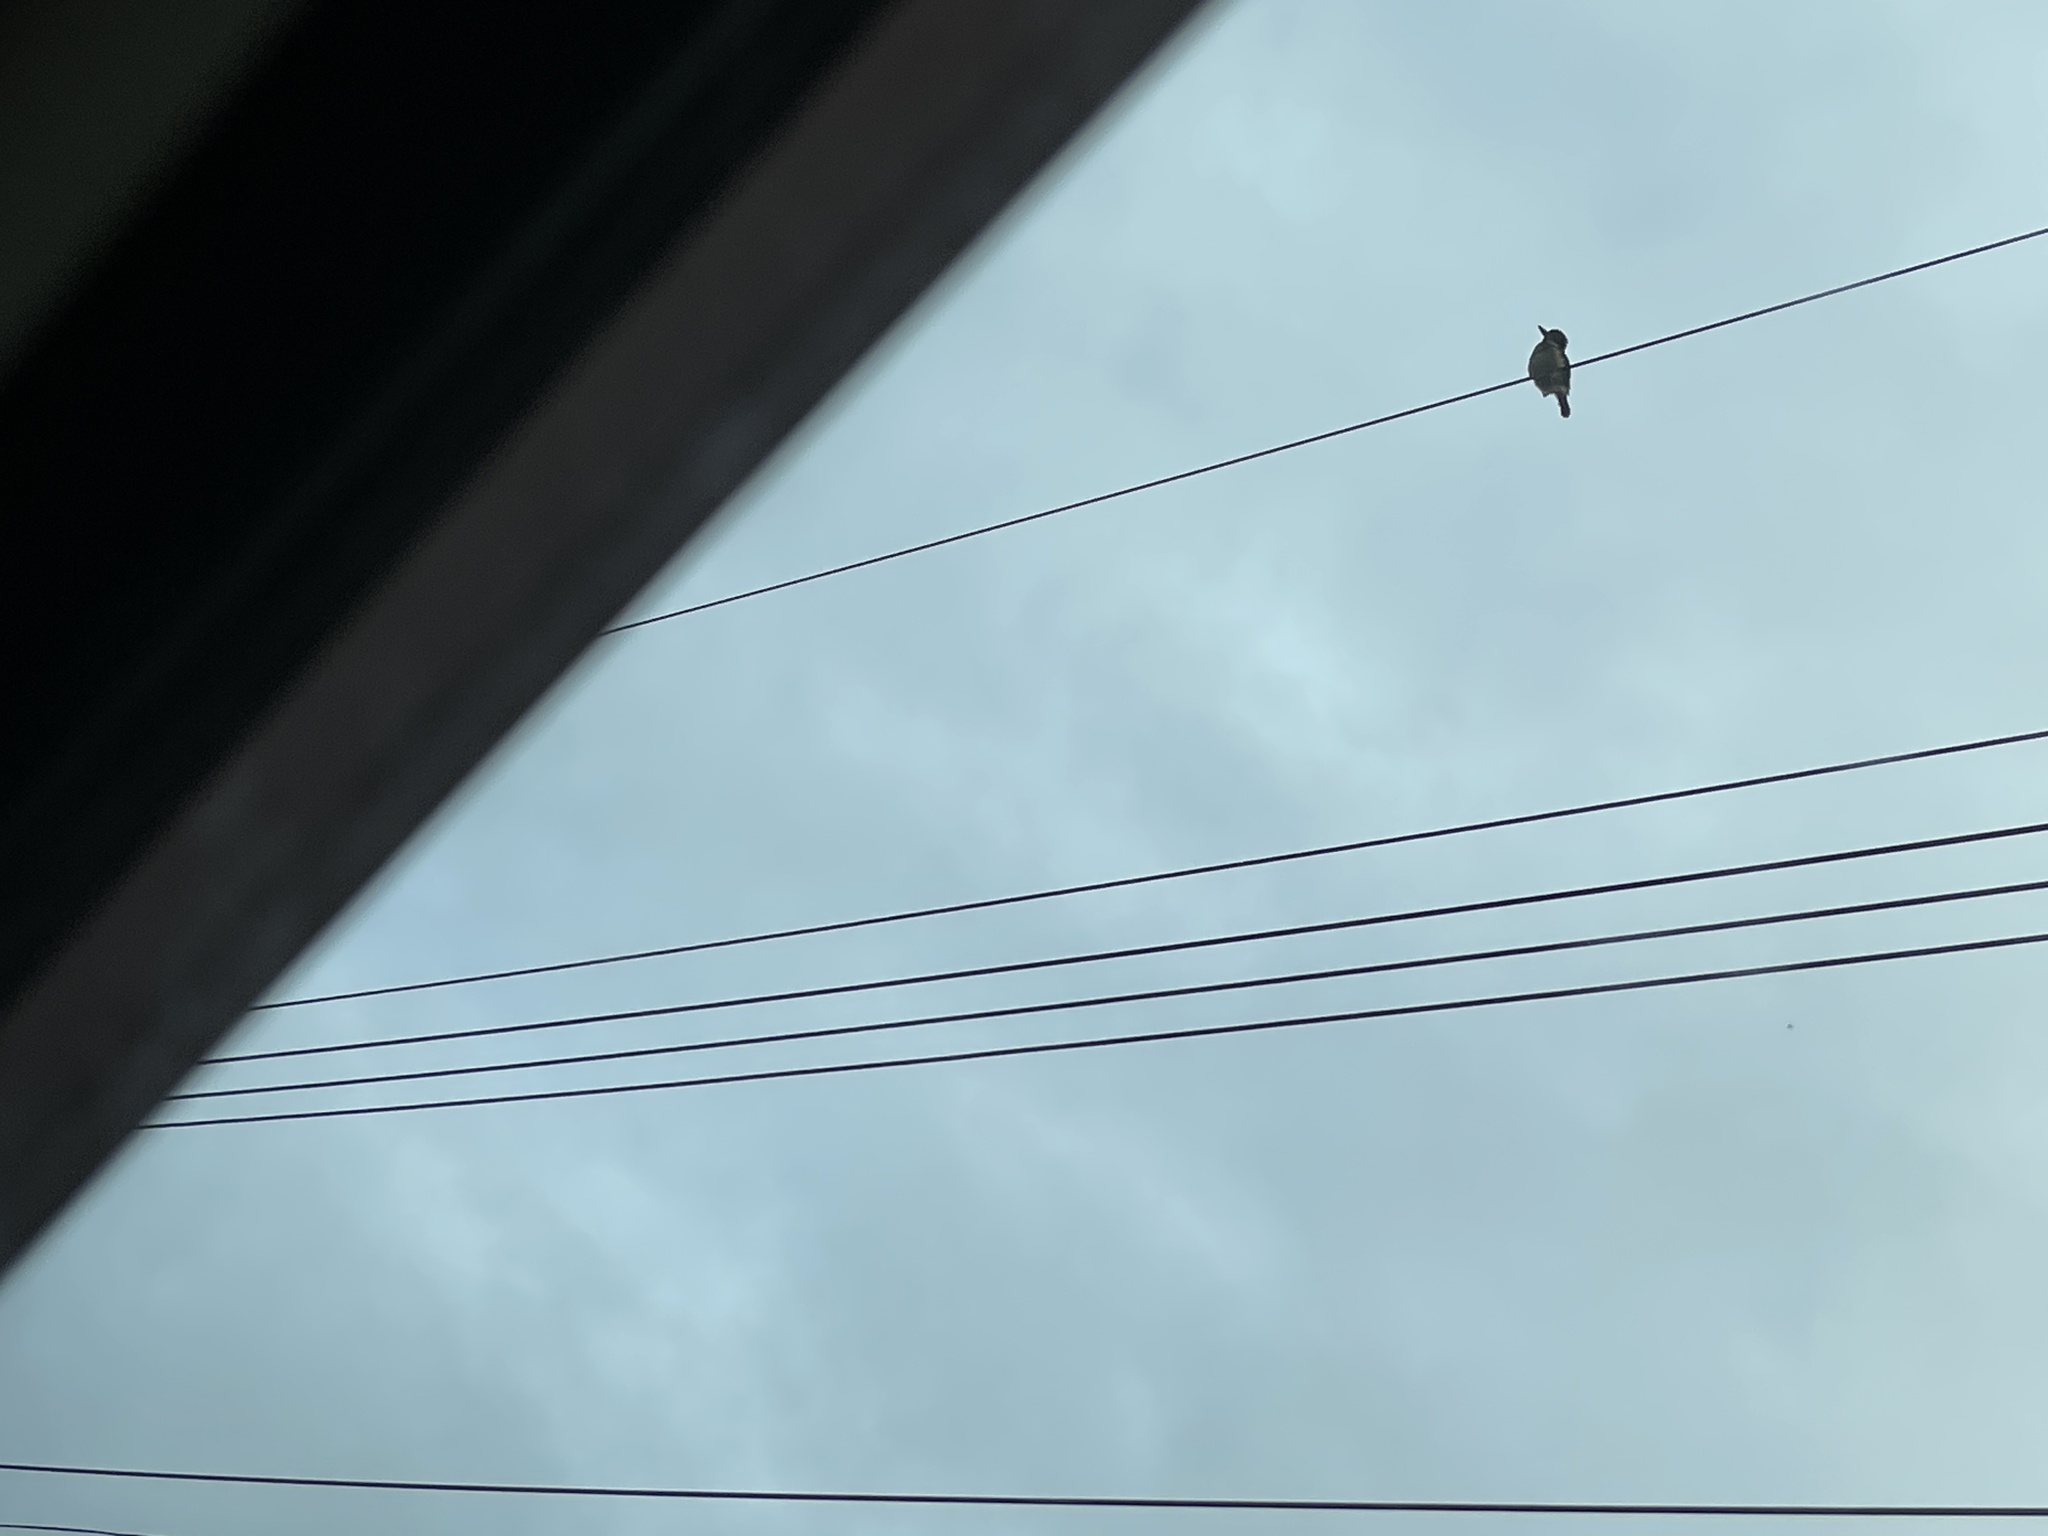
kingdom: Animalia
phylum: Chordata
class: Aves
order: Coraciiformes
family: Alcedinidae
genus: Todiramphus
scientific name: Todiramphus sanctus
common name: Sacred kingfisher
